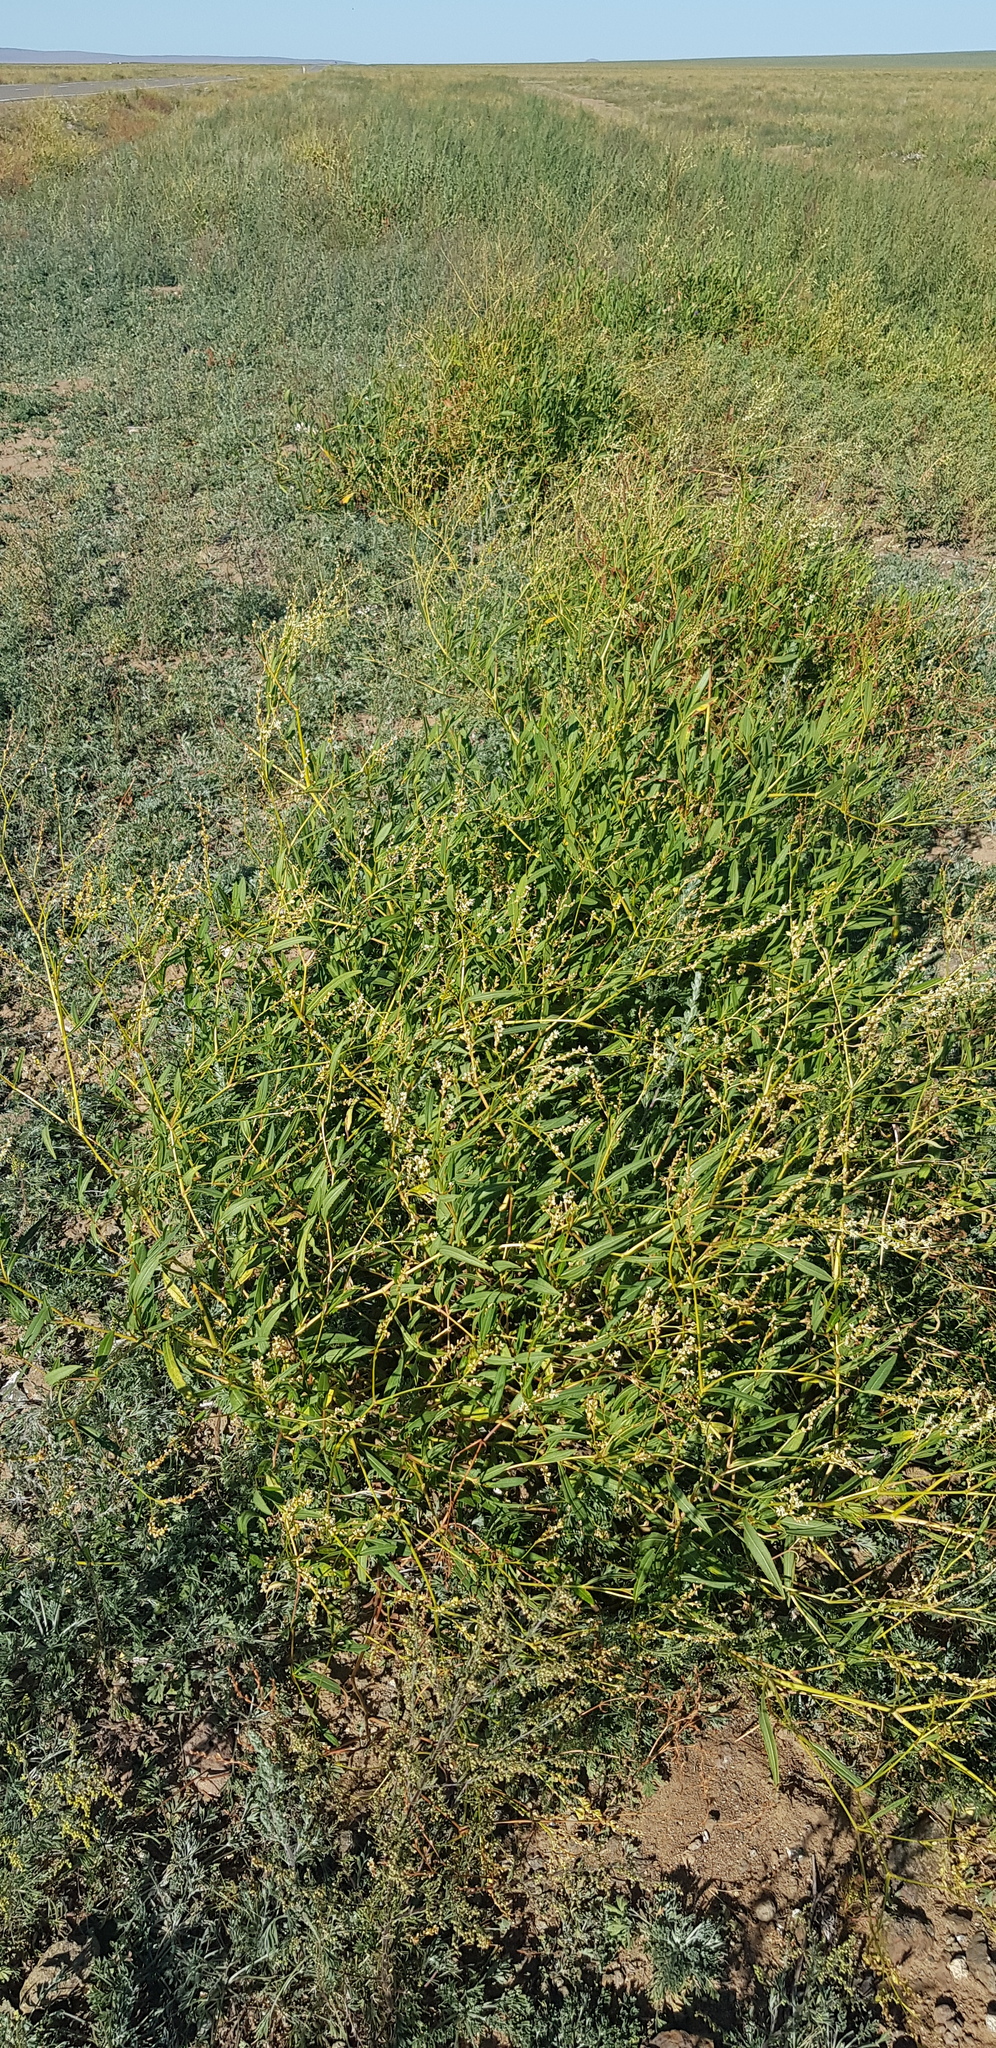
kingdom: Plantae
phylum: Tracheophyta
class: Magnoliopsida
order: Caryophyllales
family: Polygonaceae
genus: Koenigia
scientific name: Koenigia divaricata
